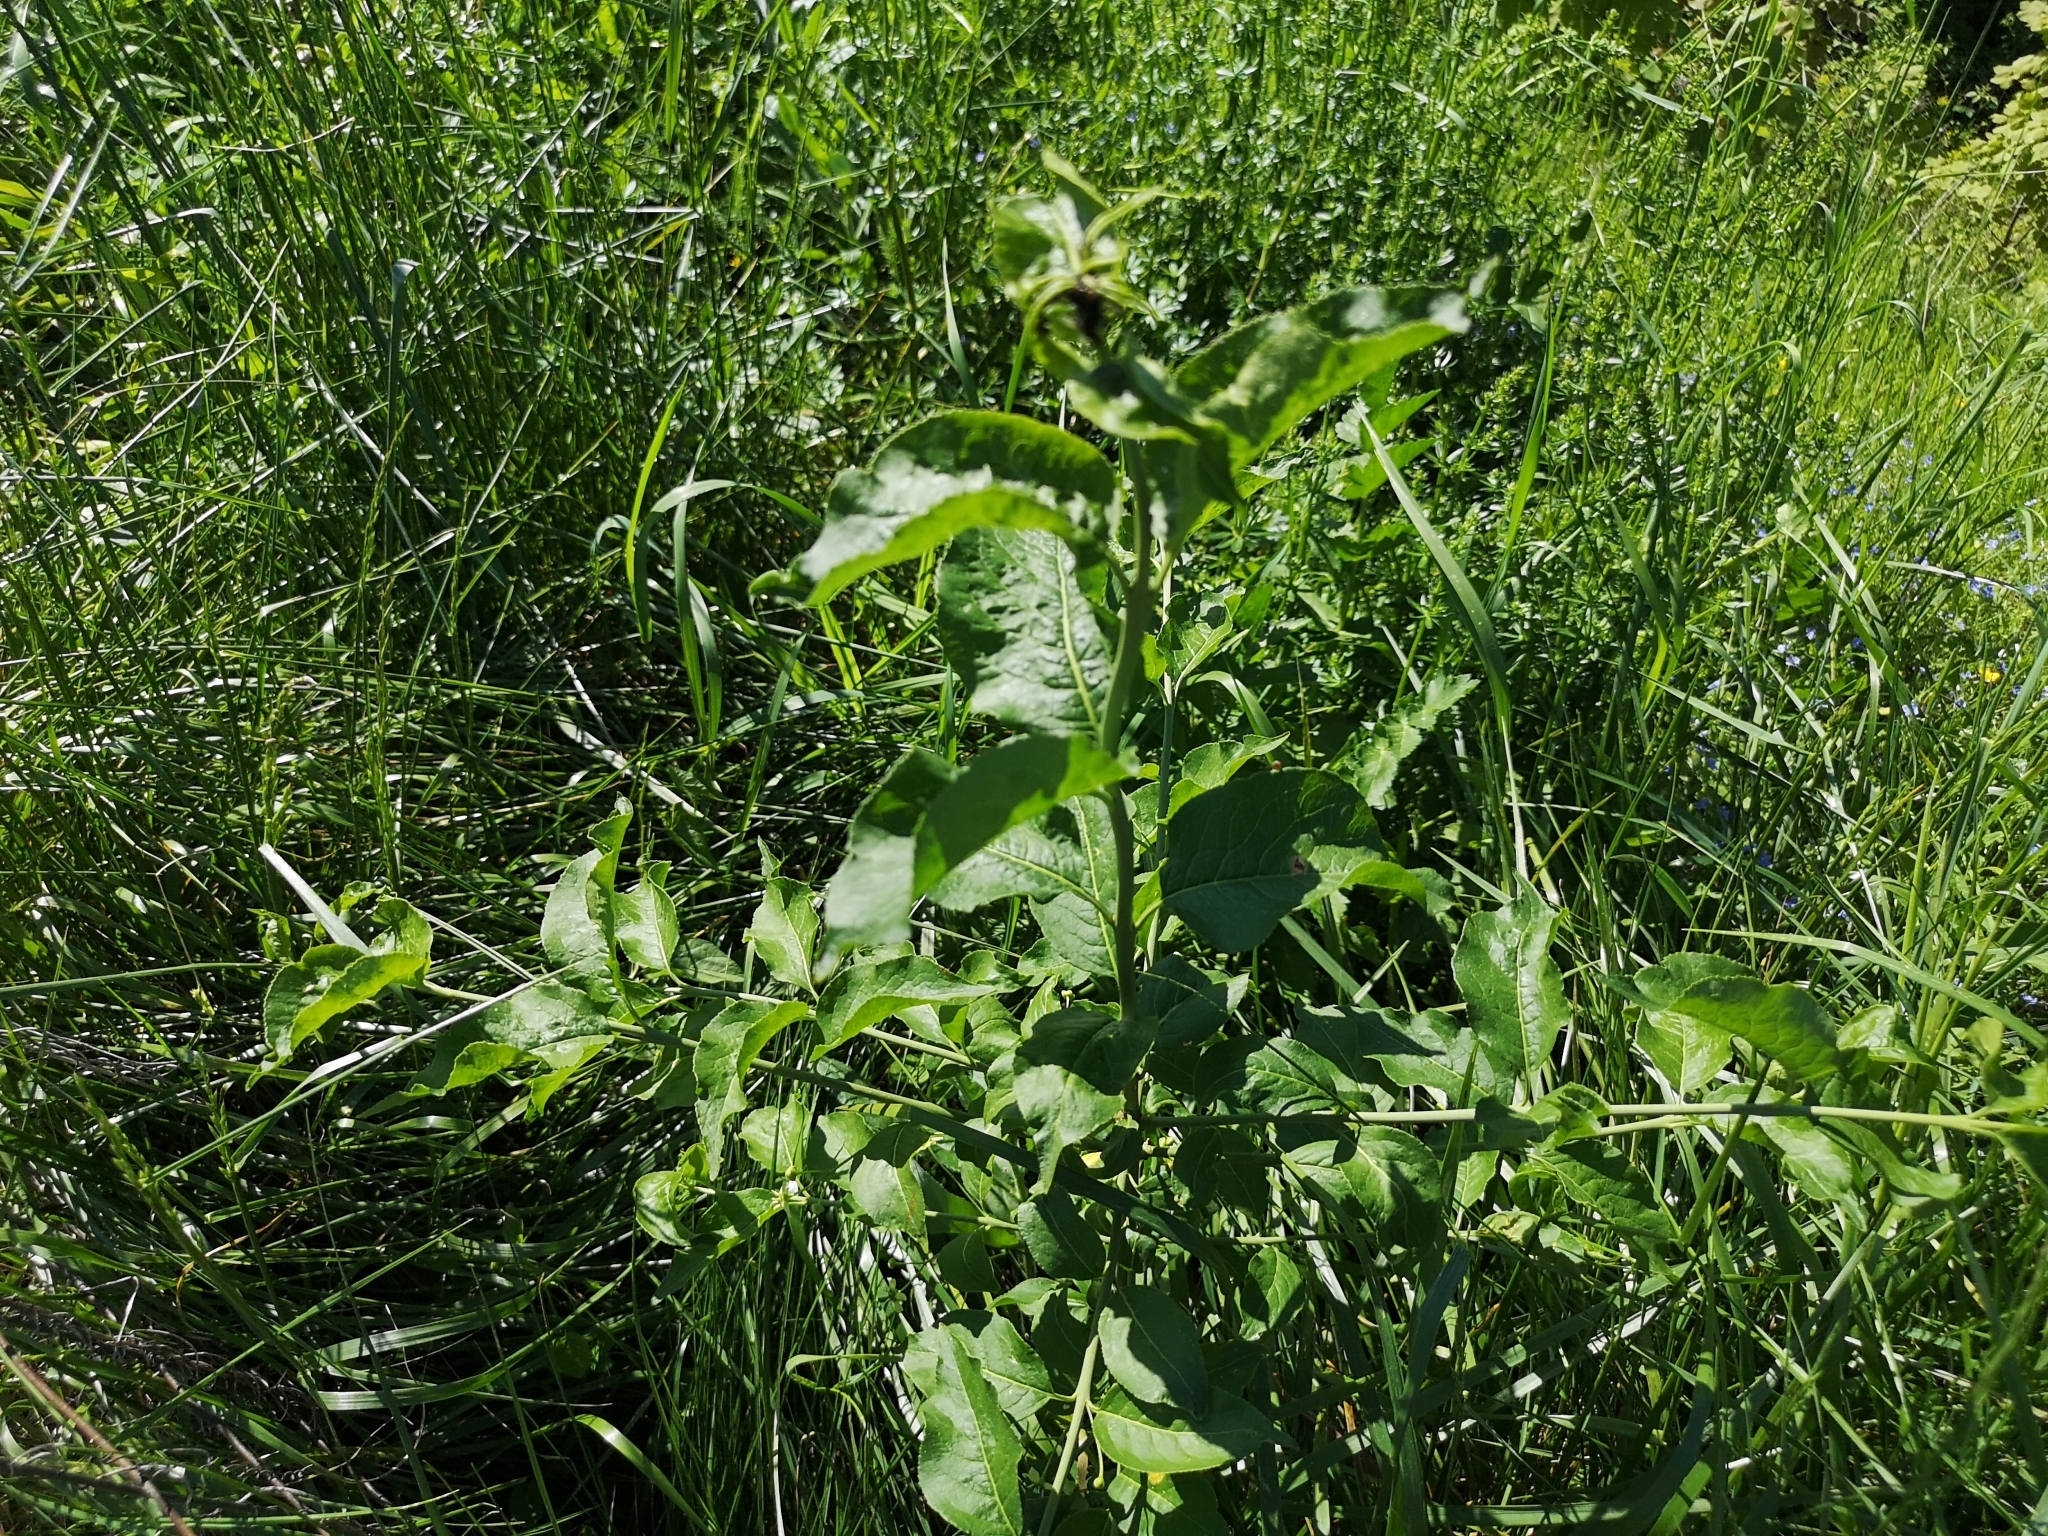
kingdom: Plantae
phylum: Tracheophyta
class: Magnoliopsida
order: Celastrales
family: Celastraceae
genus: Euonymus
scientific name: Euonymus europaeus
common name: Spindle
